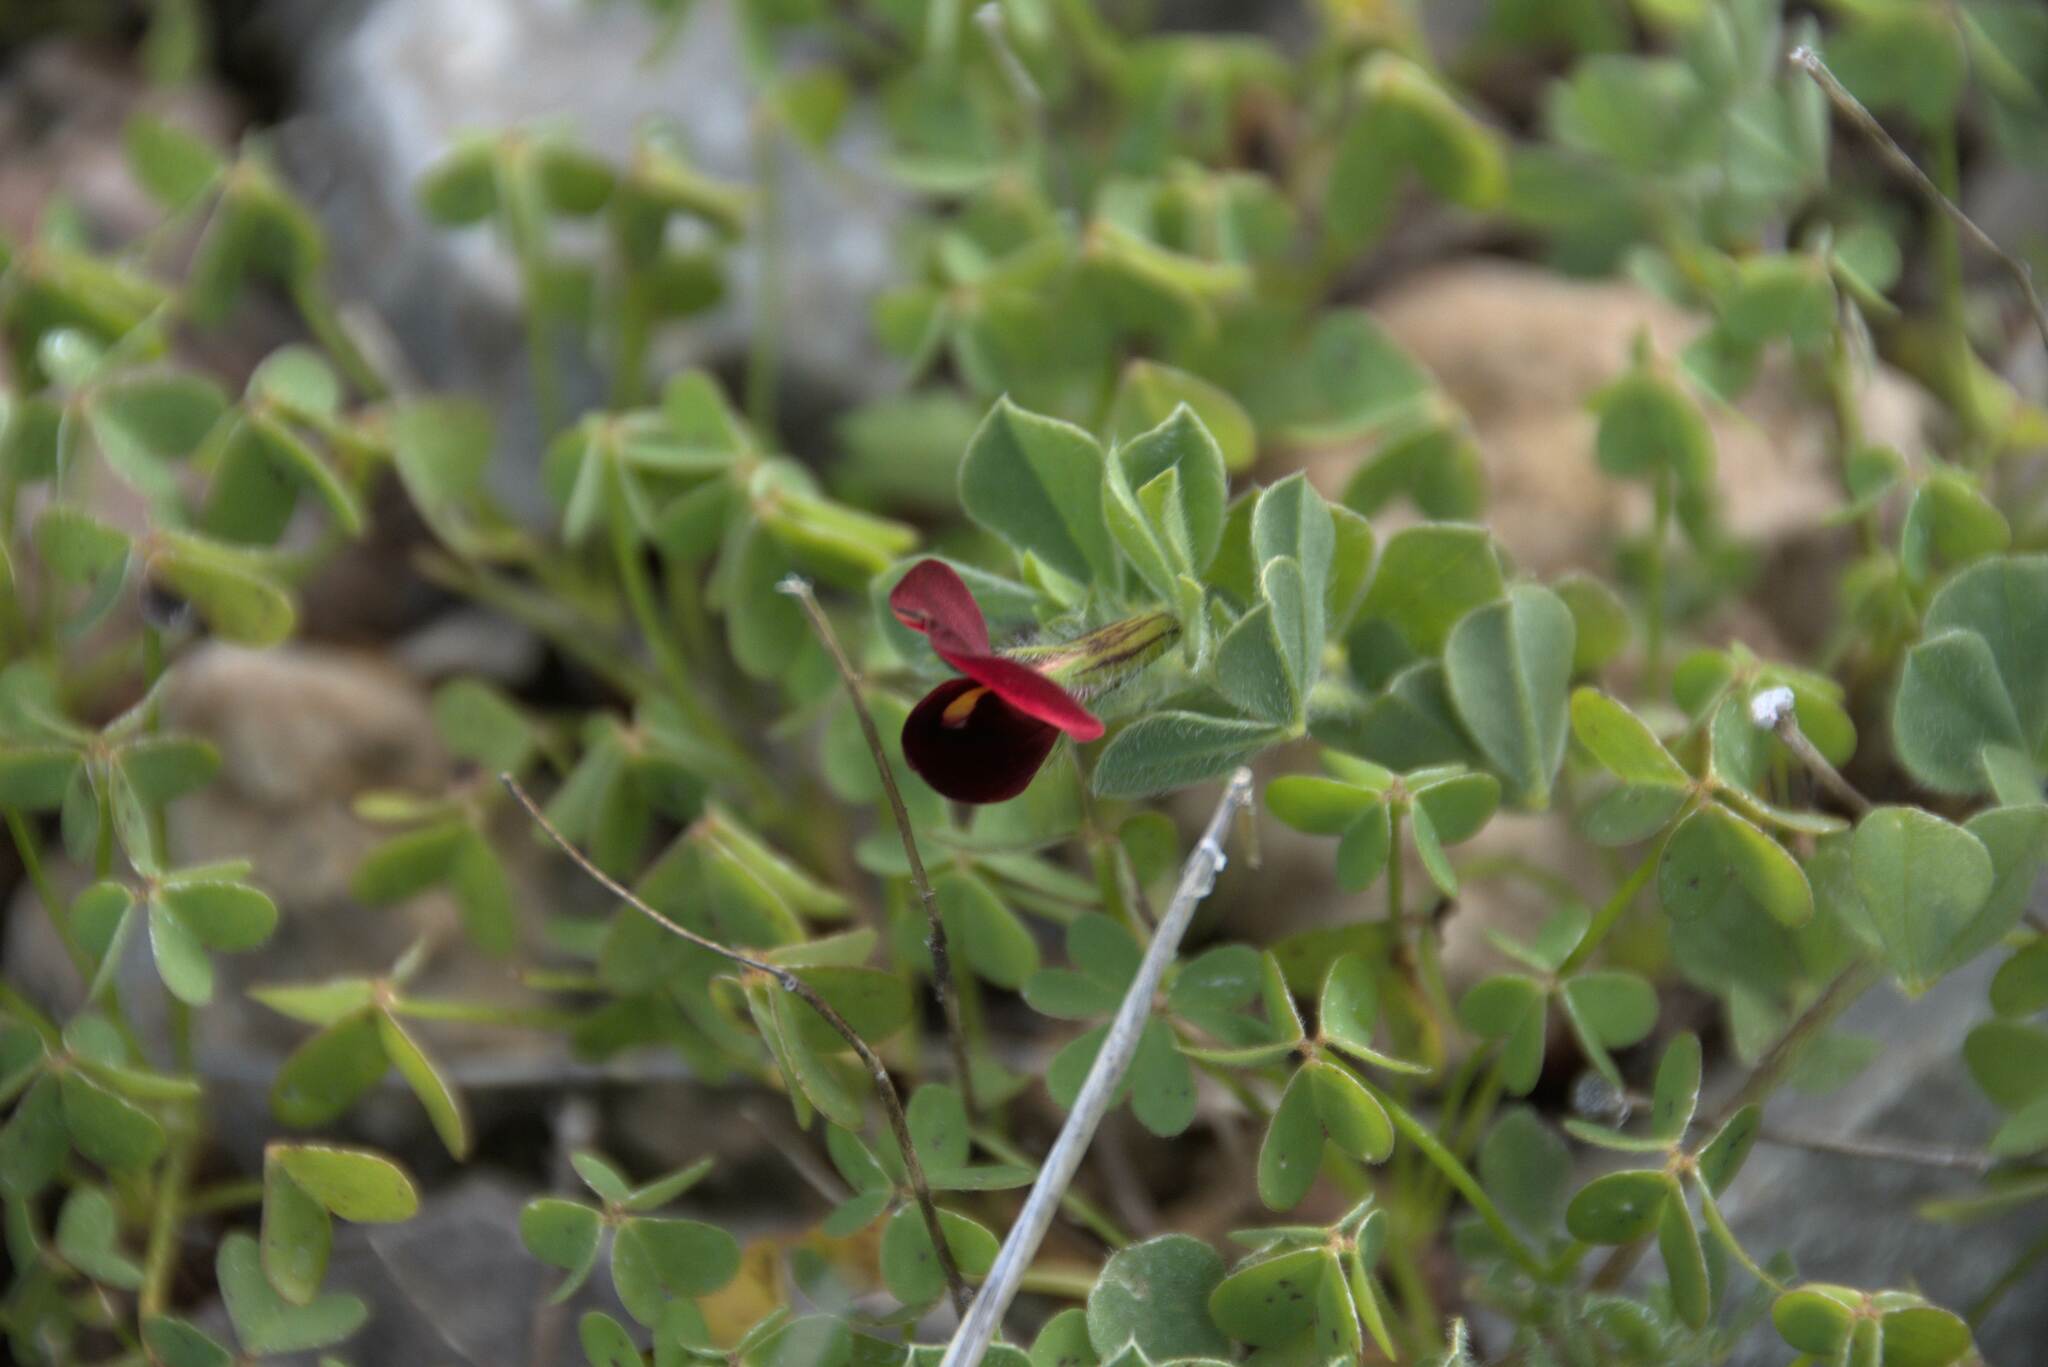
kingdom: Plantae
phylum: Tracheophyta
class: Magnoliopsida
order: Fabales
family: Fabaceae
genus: Lotus
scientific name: Lotus tetragonolobus
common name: Asparagus-pea
